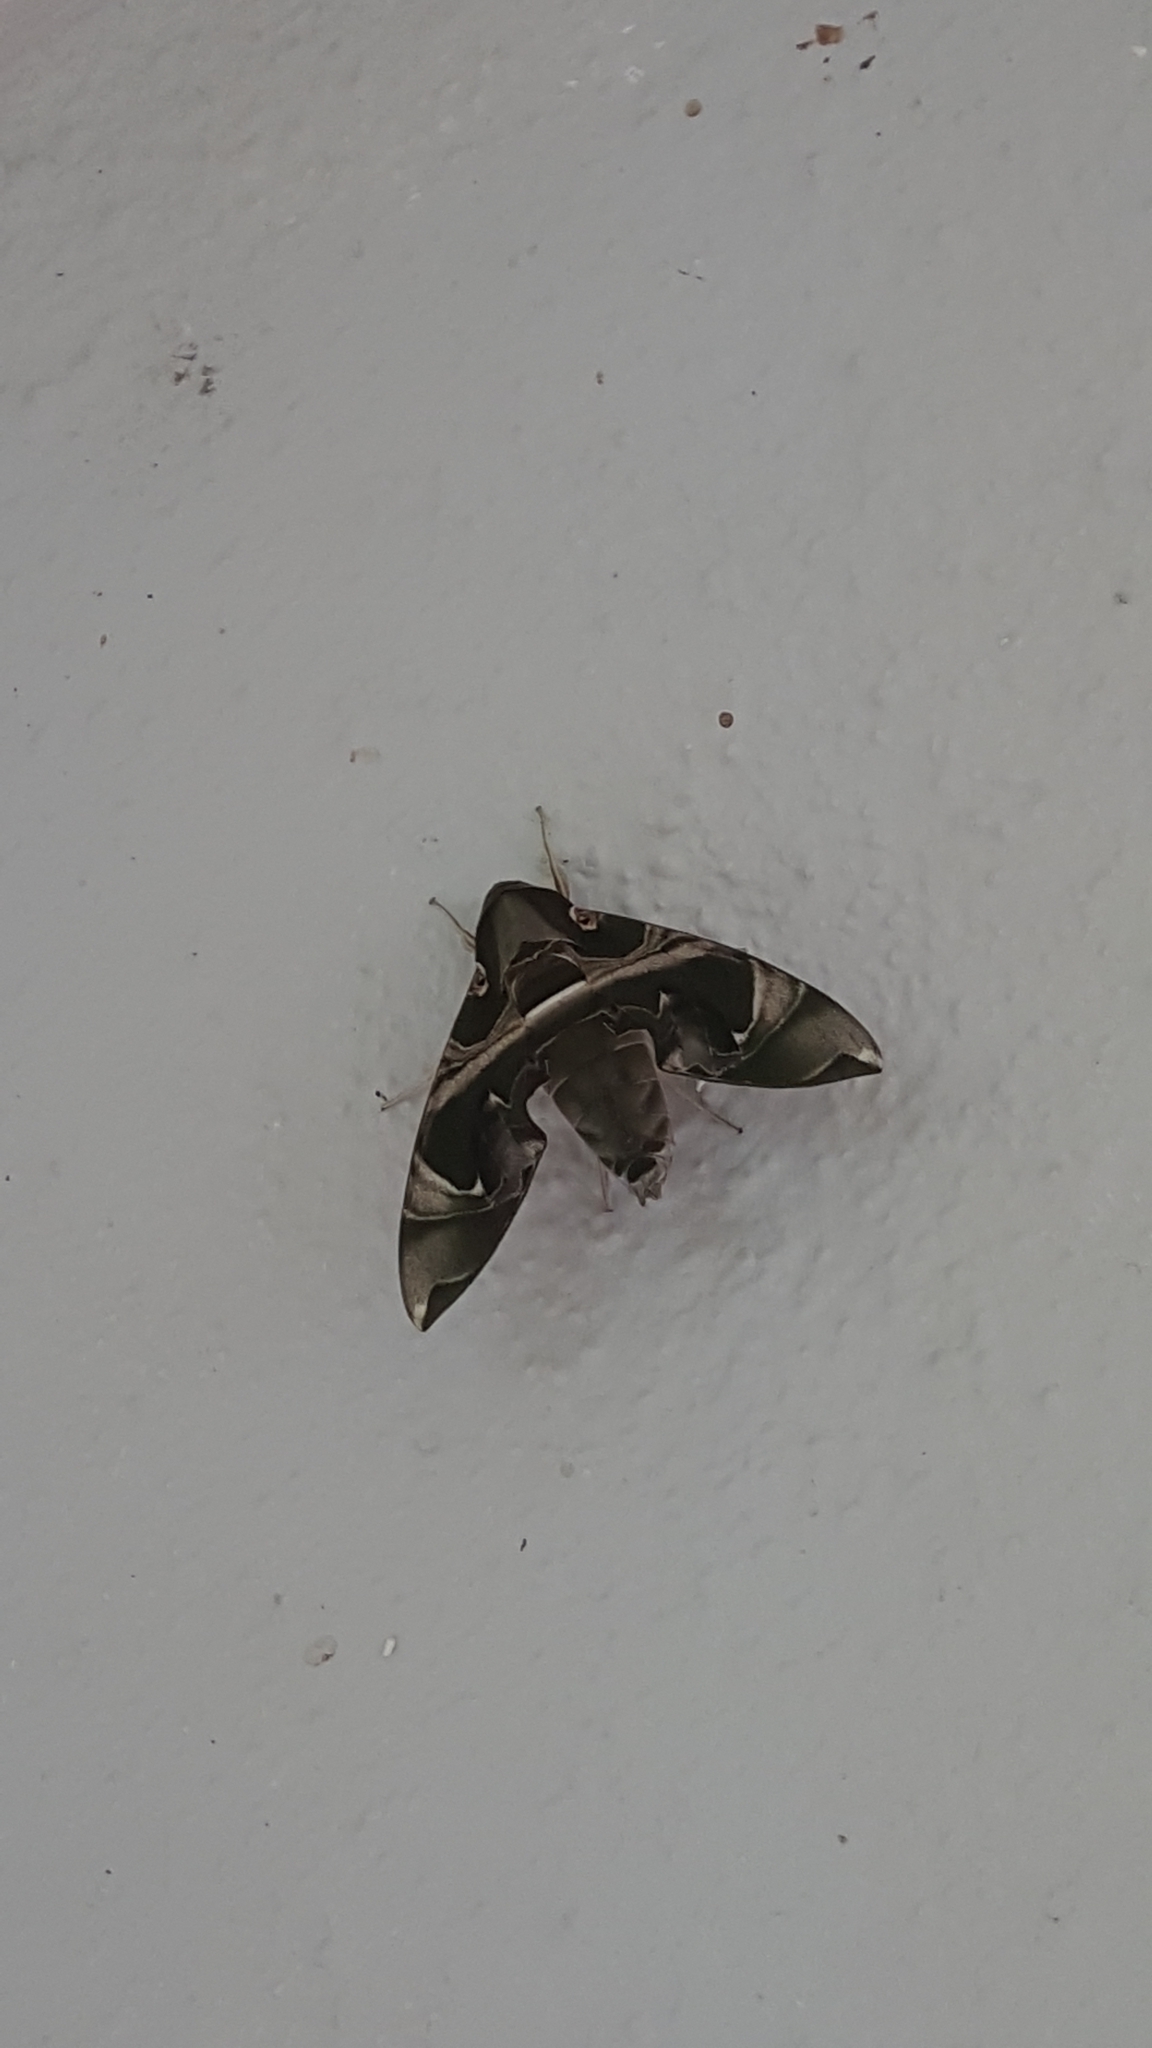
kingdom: Animalia
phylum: Arthropoda
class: Insecta
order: Lepidoptera
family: Sphingidae
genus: Daphnis
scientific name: Daphnis hypothous
